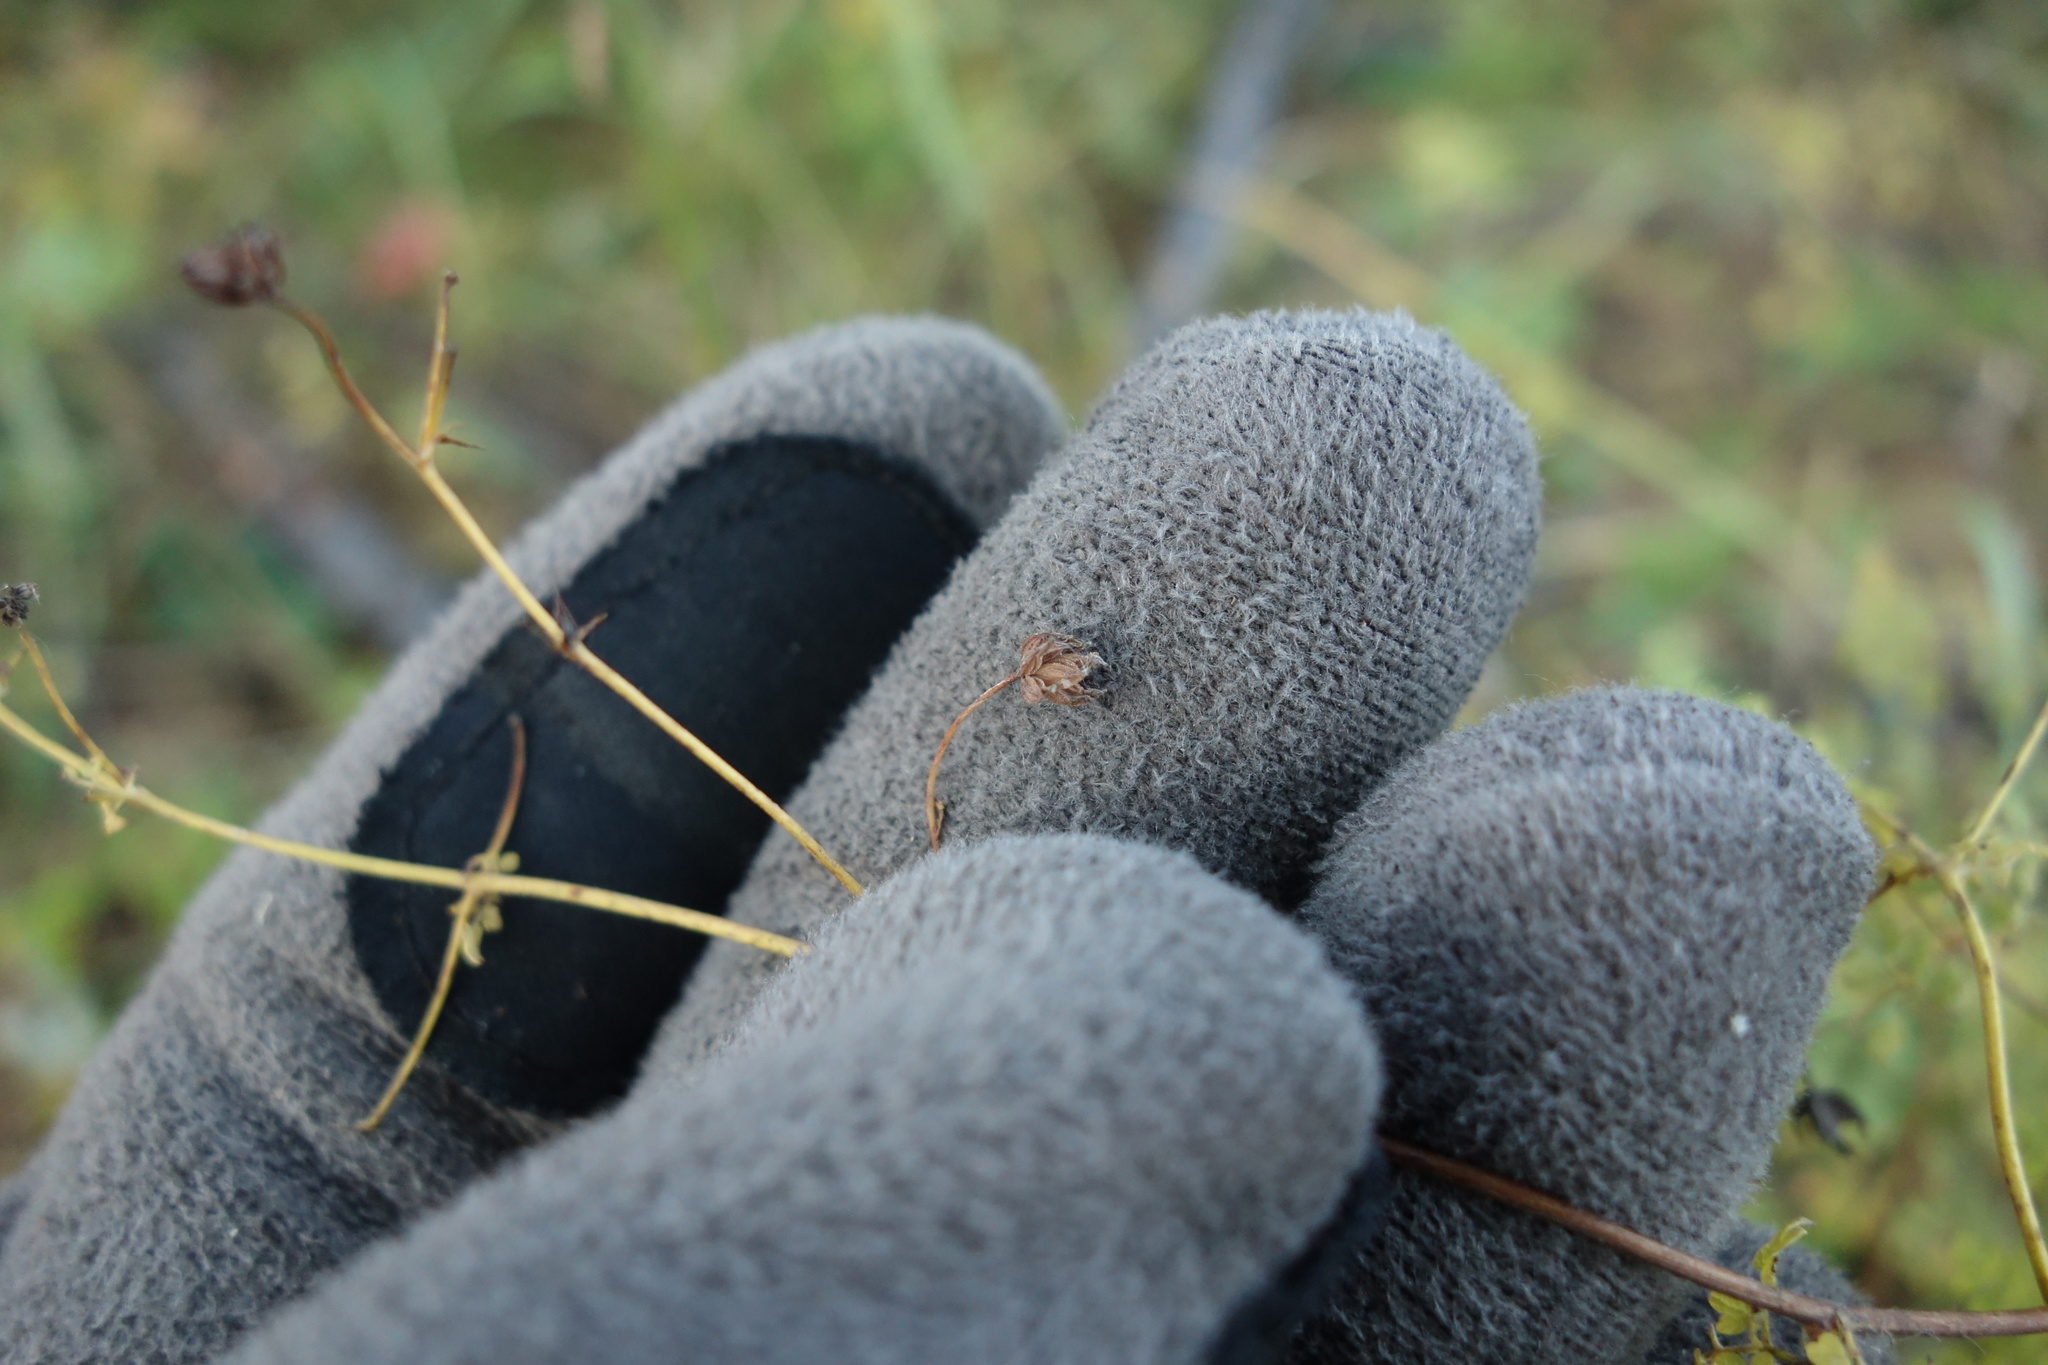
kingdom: Plantae
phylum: Tracheophyta
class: Magnoliopsida
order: Ranunculales
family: Ranunculaceae
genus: Thalictrum
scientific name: Thalictrum foetidum
